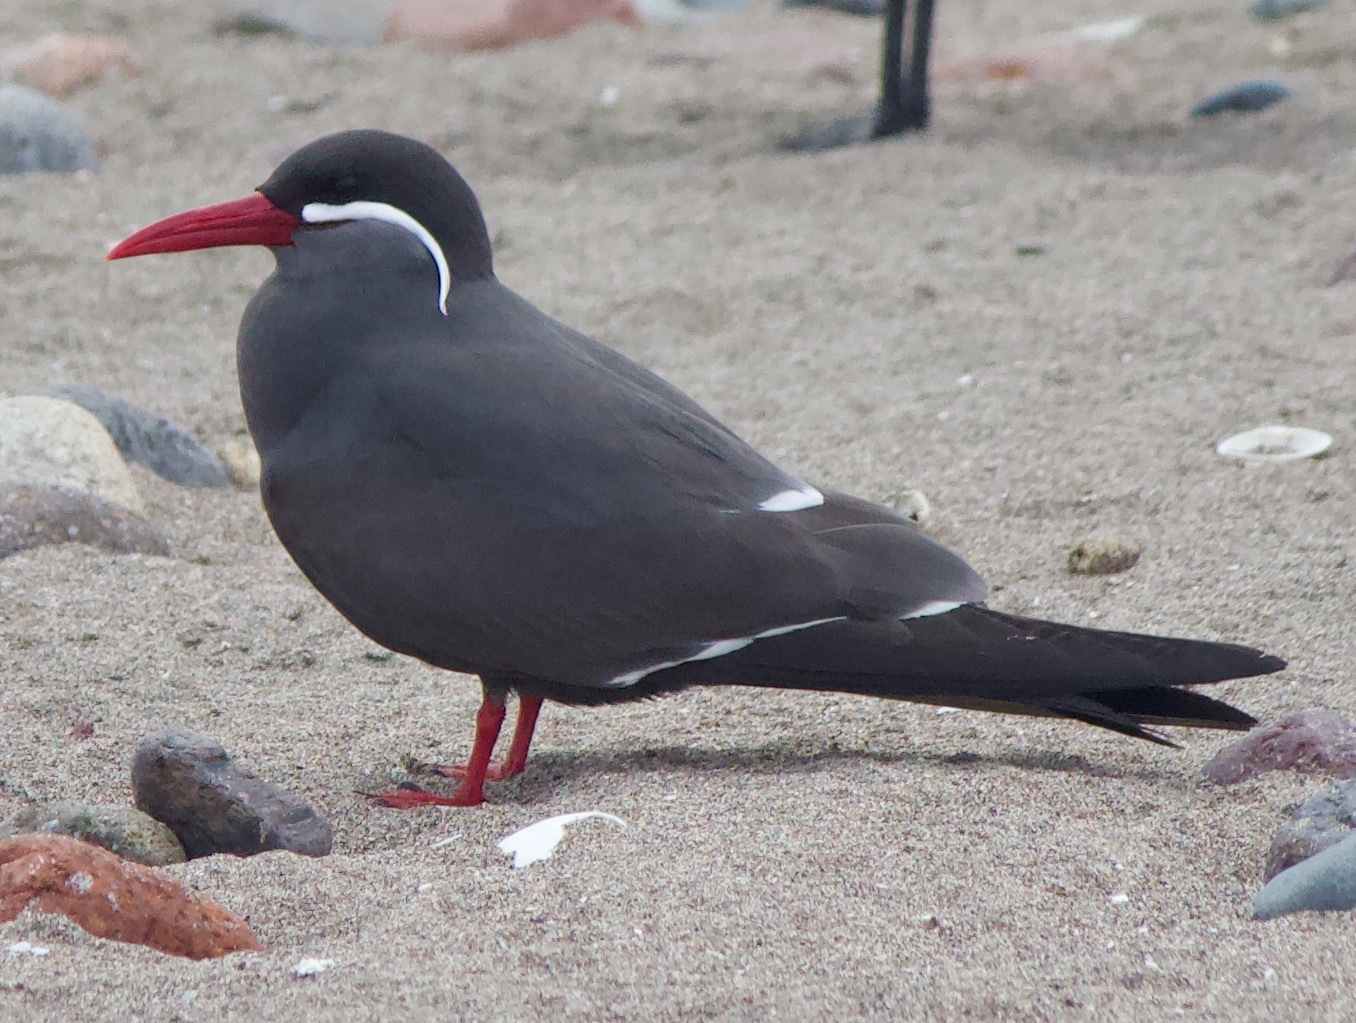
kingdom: Animalia
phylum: Chordata
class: Aves
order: Charadriiformes
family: Laridae
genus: Larosterna
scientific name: Larosterna inca
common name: Inca tern
